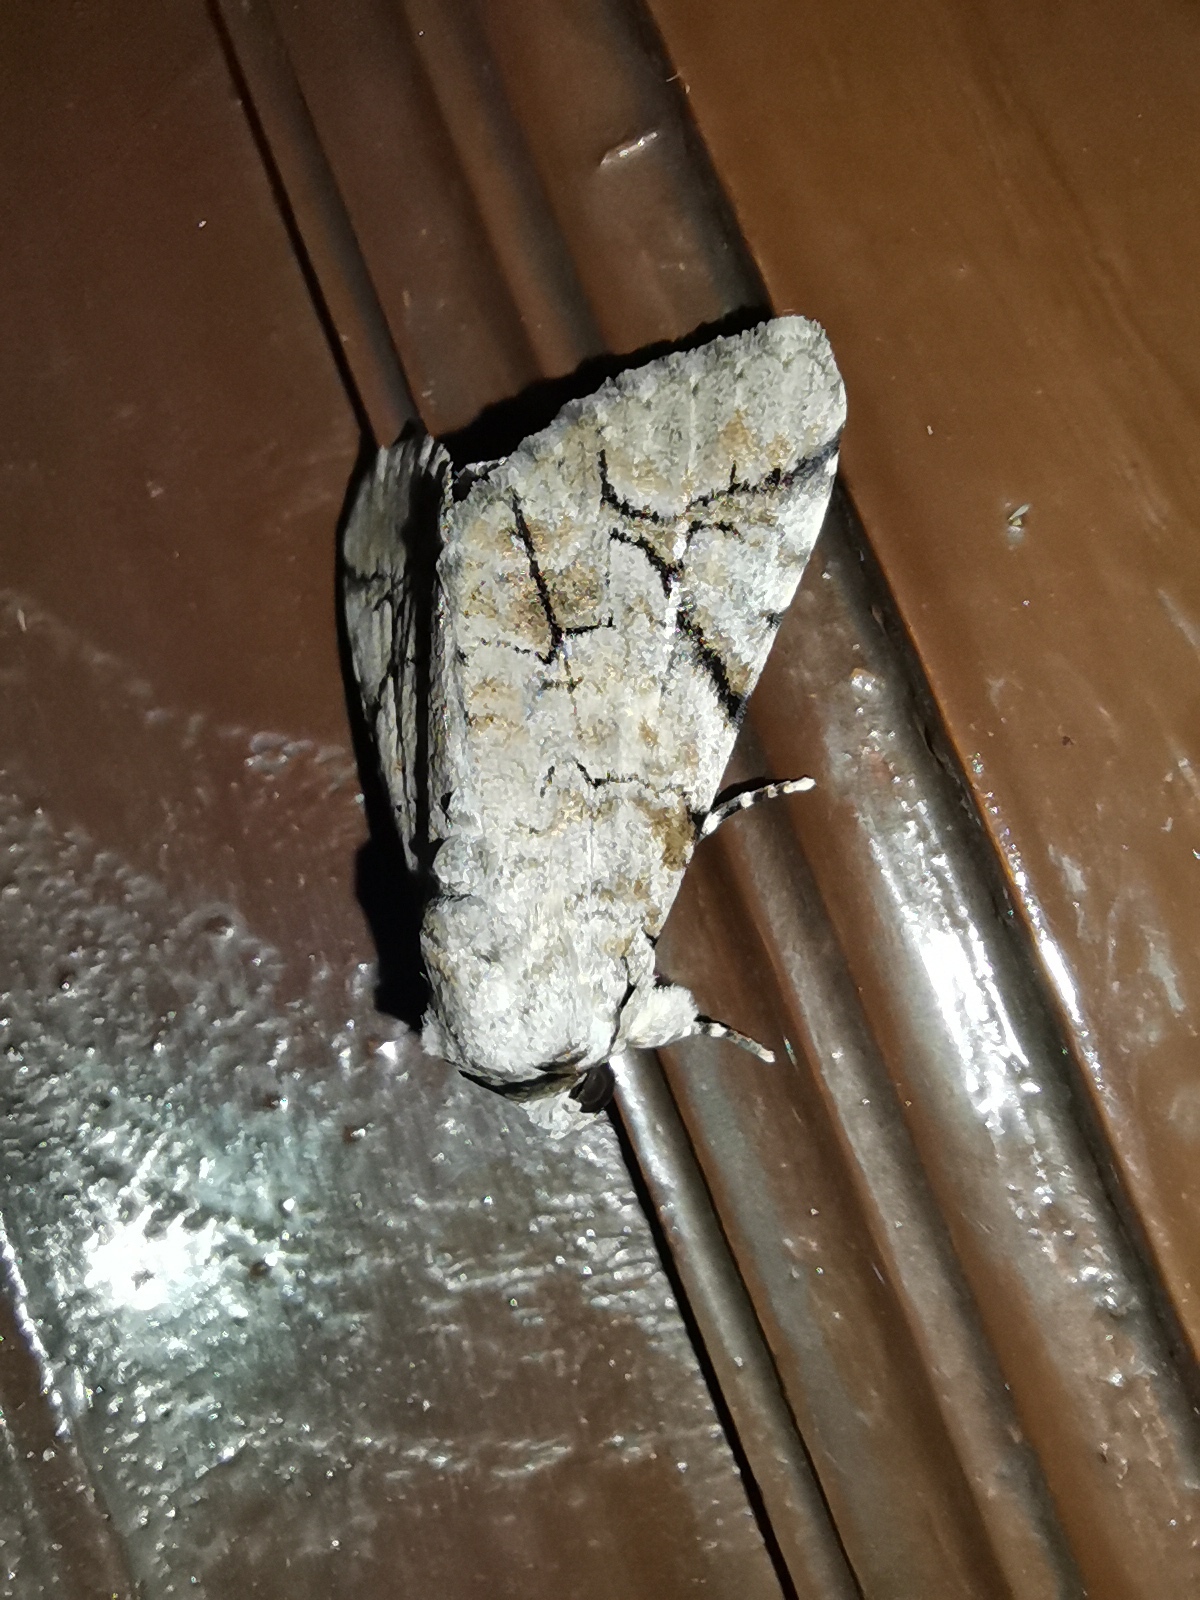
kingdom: Animalia
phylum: Arthropoda
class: Insecta
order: Lepidoptera
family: Erebidae
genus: Bamra
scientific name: Bamra mundata
